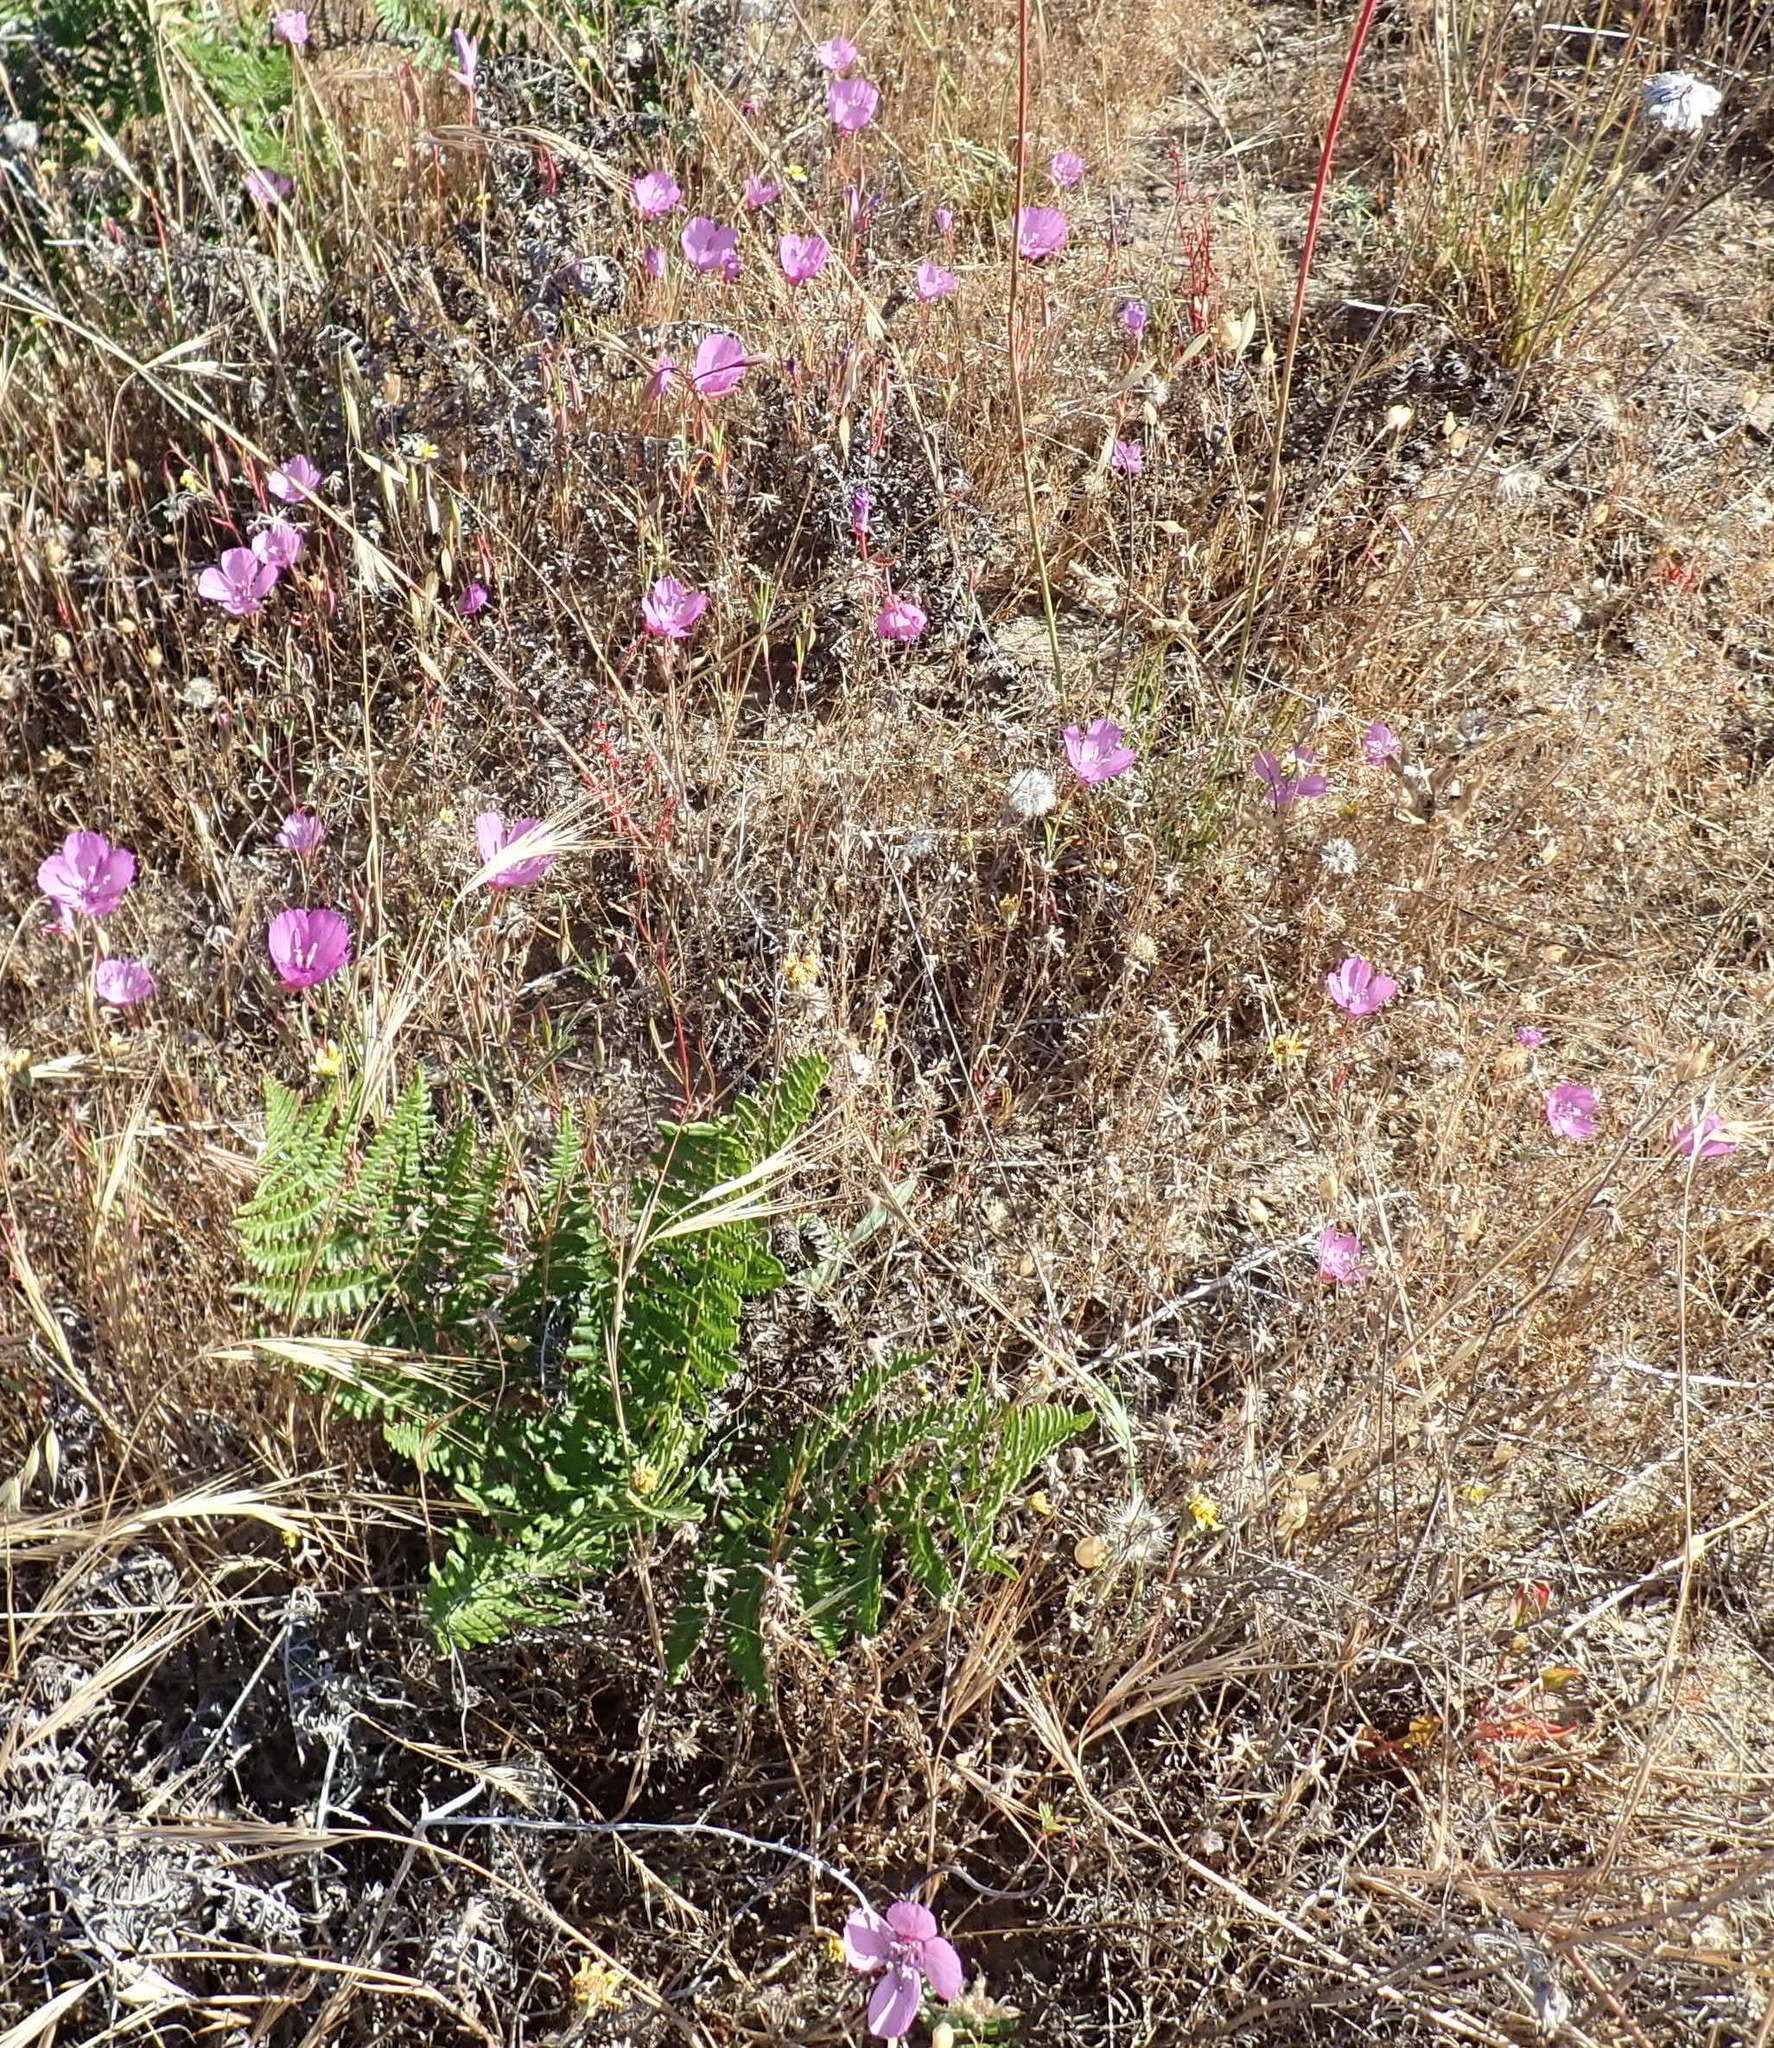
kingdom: Plantae
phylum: Tracheophyta
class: Magnoliopsida
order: Myrtales
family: Onagraceae
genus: Clarkia
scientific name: Clarkia lewisii
